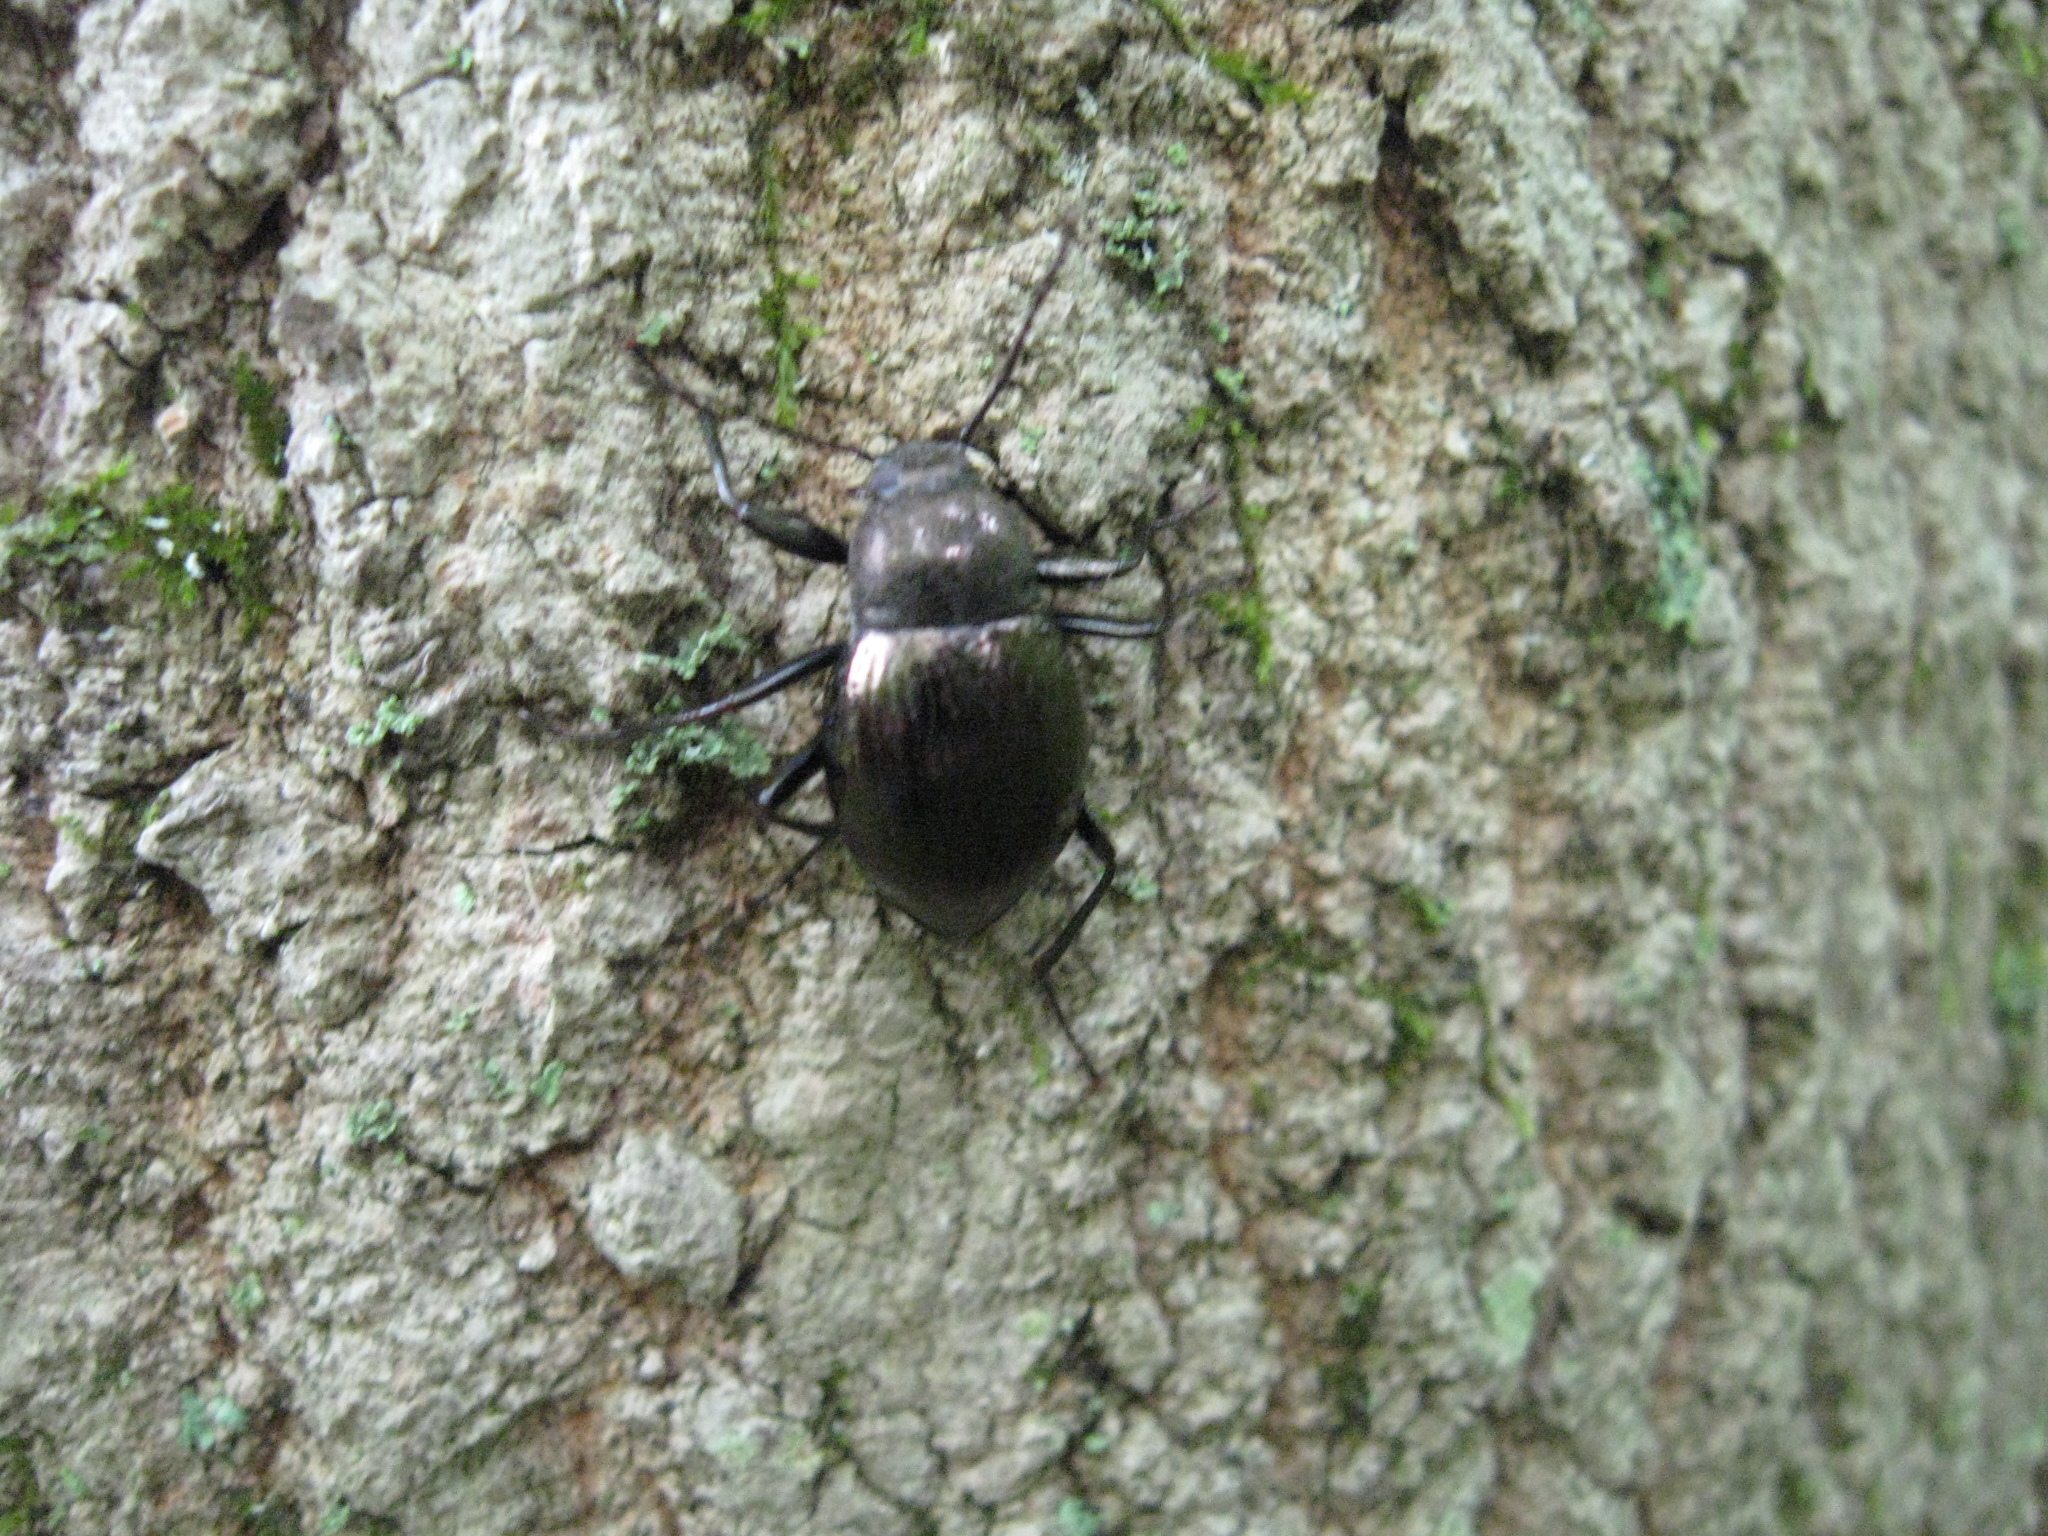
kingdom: Animalia
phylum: Arthropoda
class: Insecta
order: Coleoptera
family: Tenebrionidae
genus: Meracantha
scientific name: Meracantha contracta
